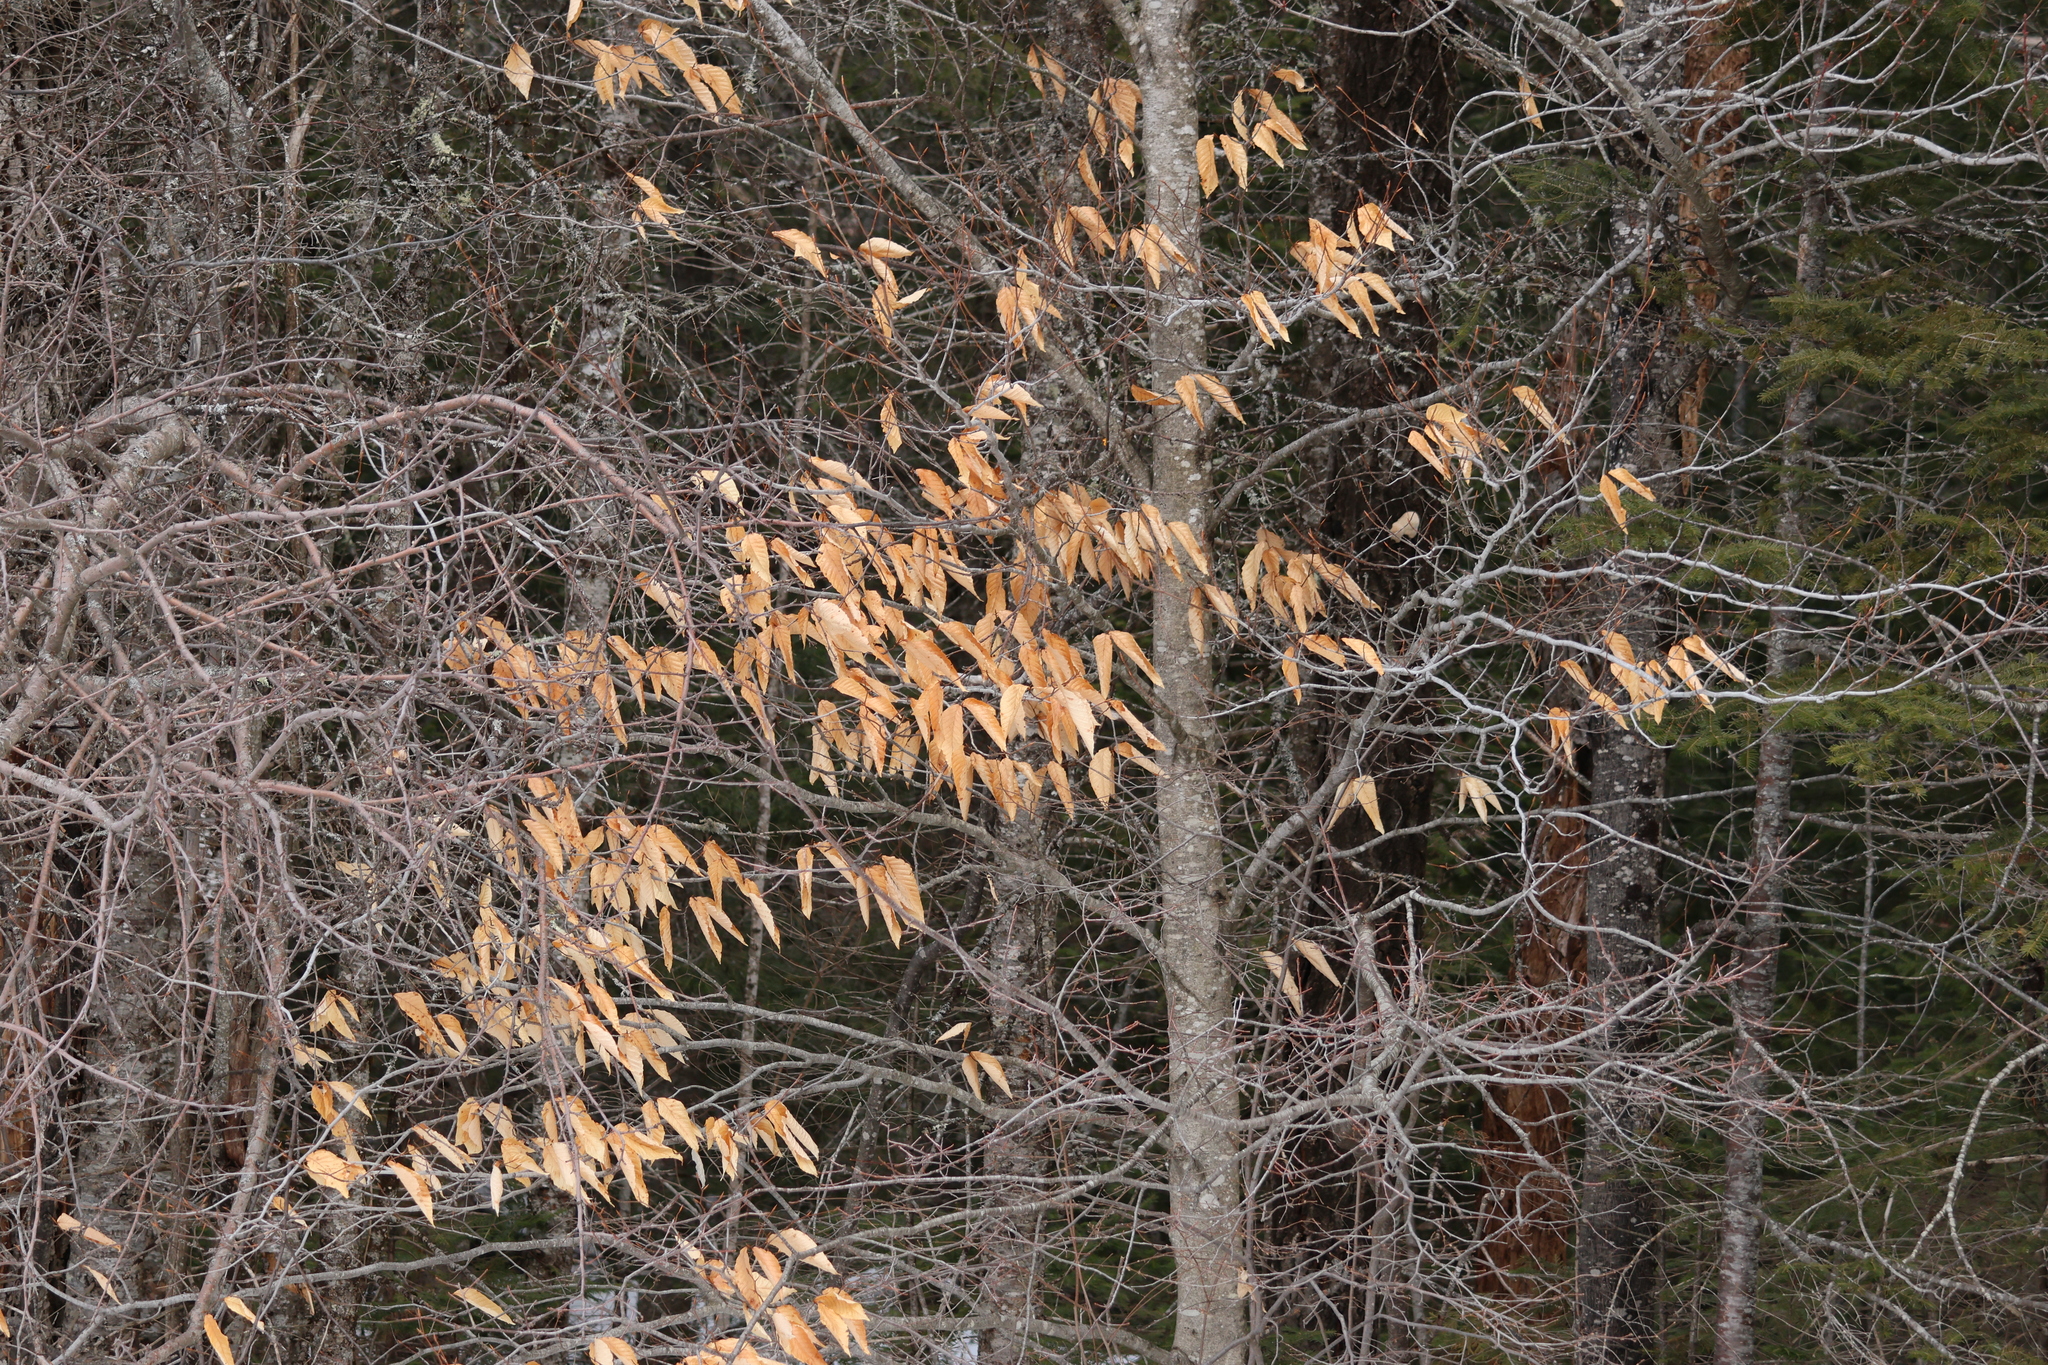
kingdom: Plantae
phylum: Tracheophyta
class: Magnoliopsida
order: Fagales
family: Fagaceae
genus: Fagus
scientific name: Fagus grandifolia
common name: American beech
